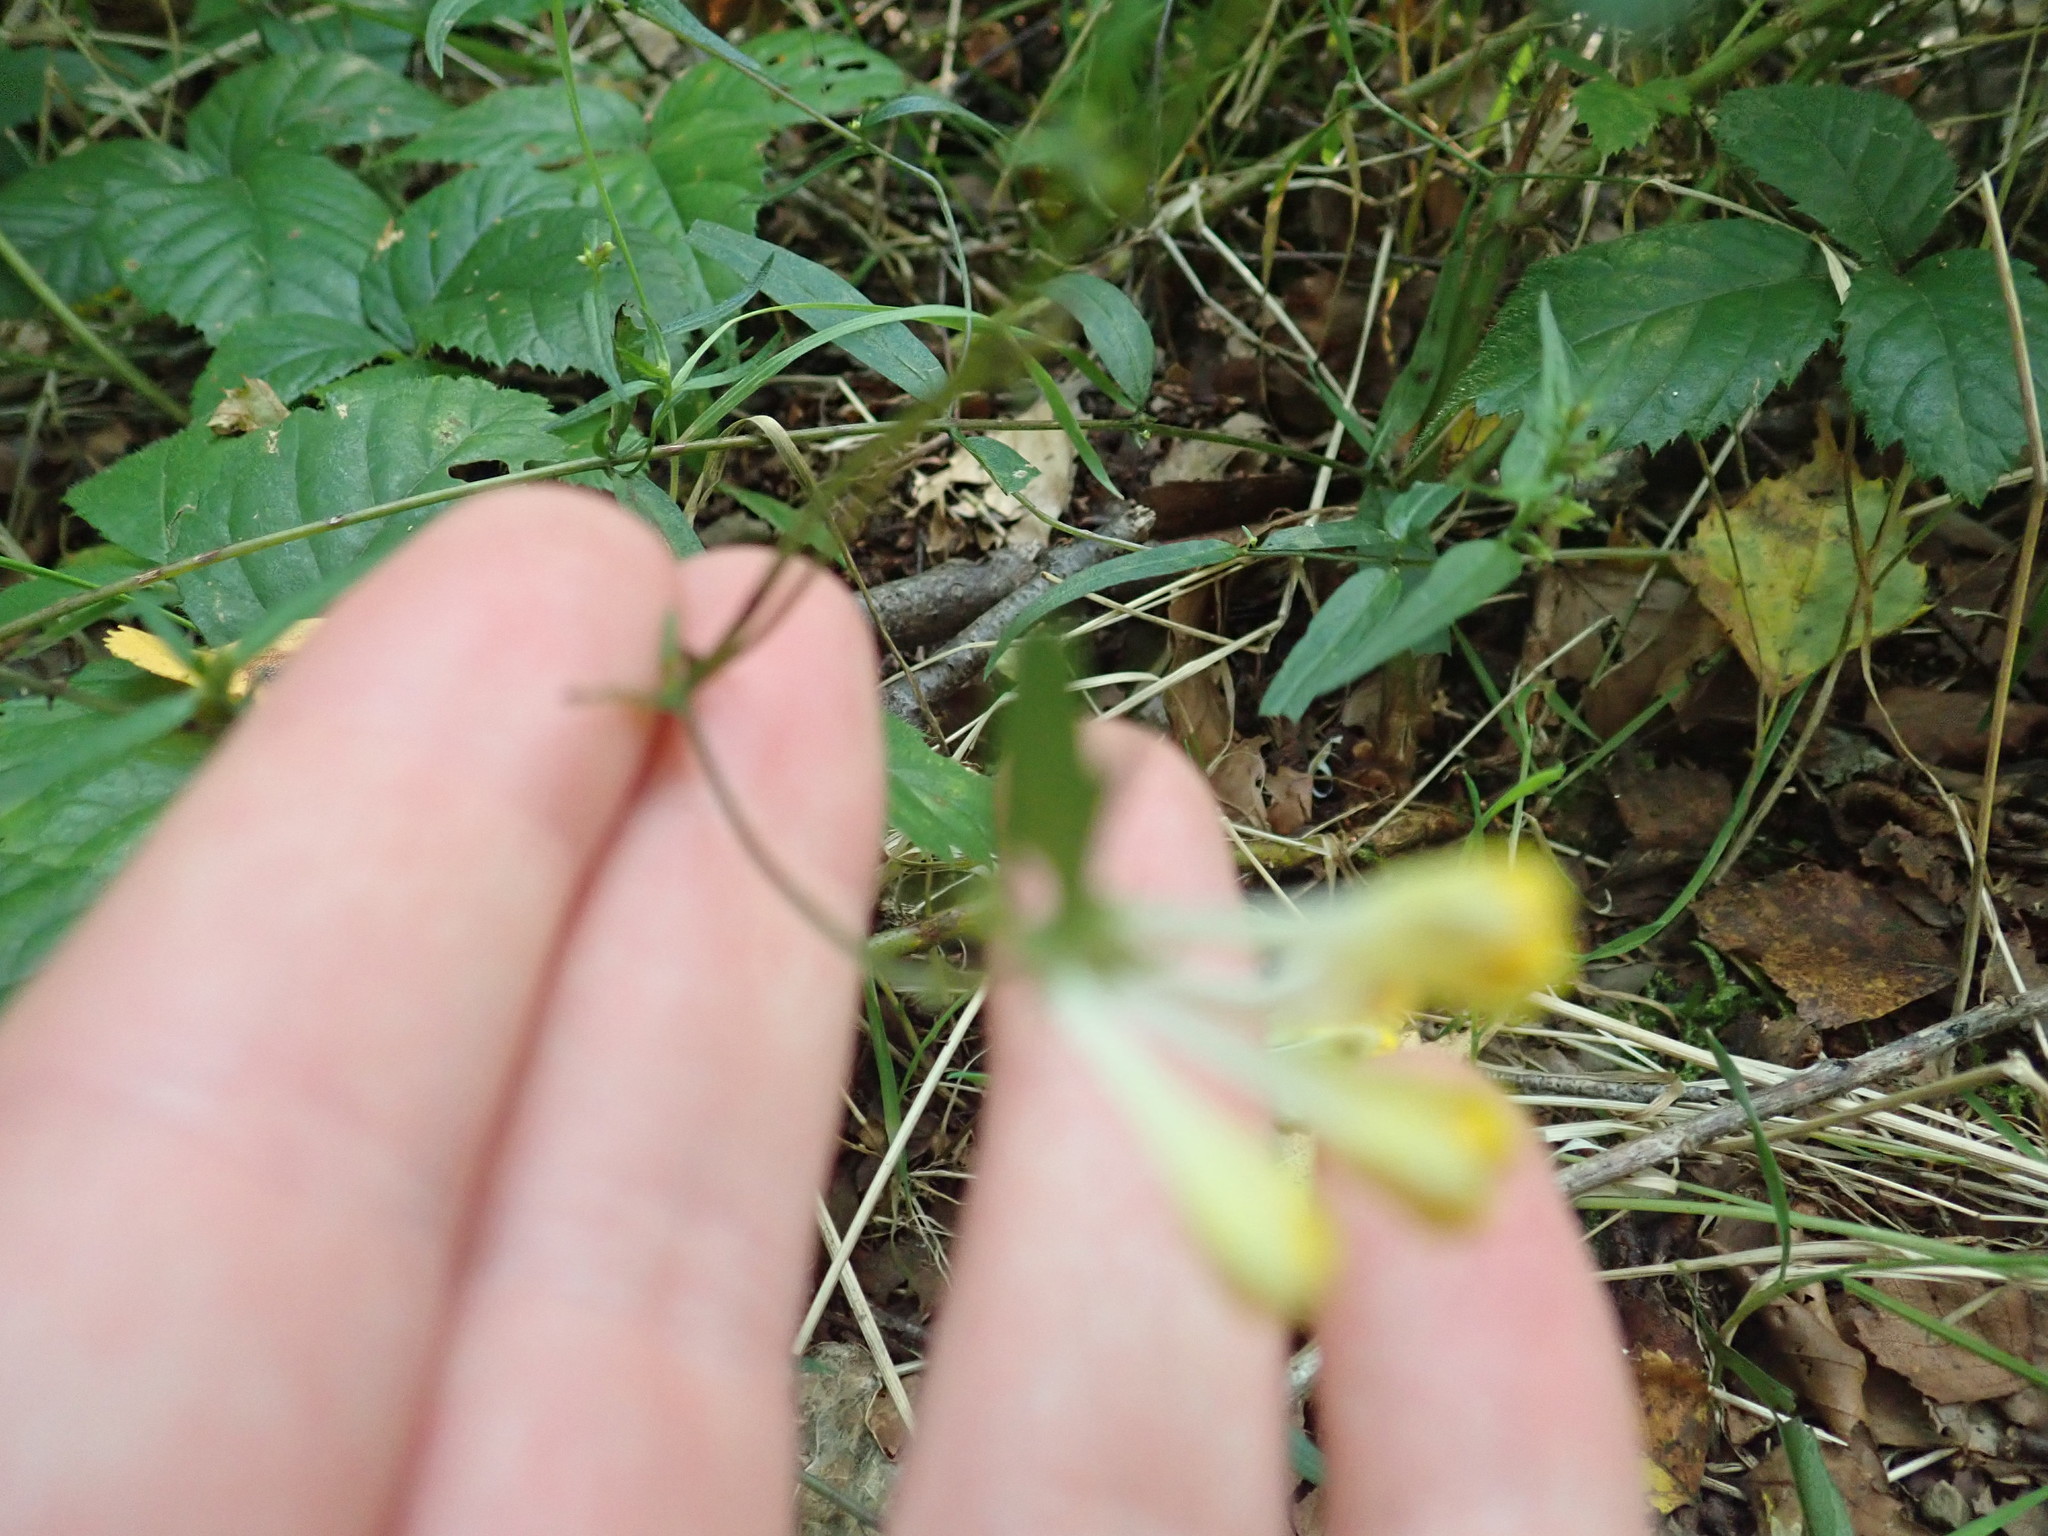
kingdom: Plantae
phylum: Tracheophyta
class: Magnoliopsida
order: Lamiales
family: Orobanchaceae
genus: Melampyrum
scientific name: Melampyrum pratense
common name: Common cow-wheat
